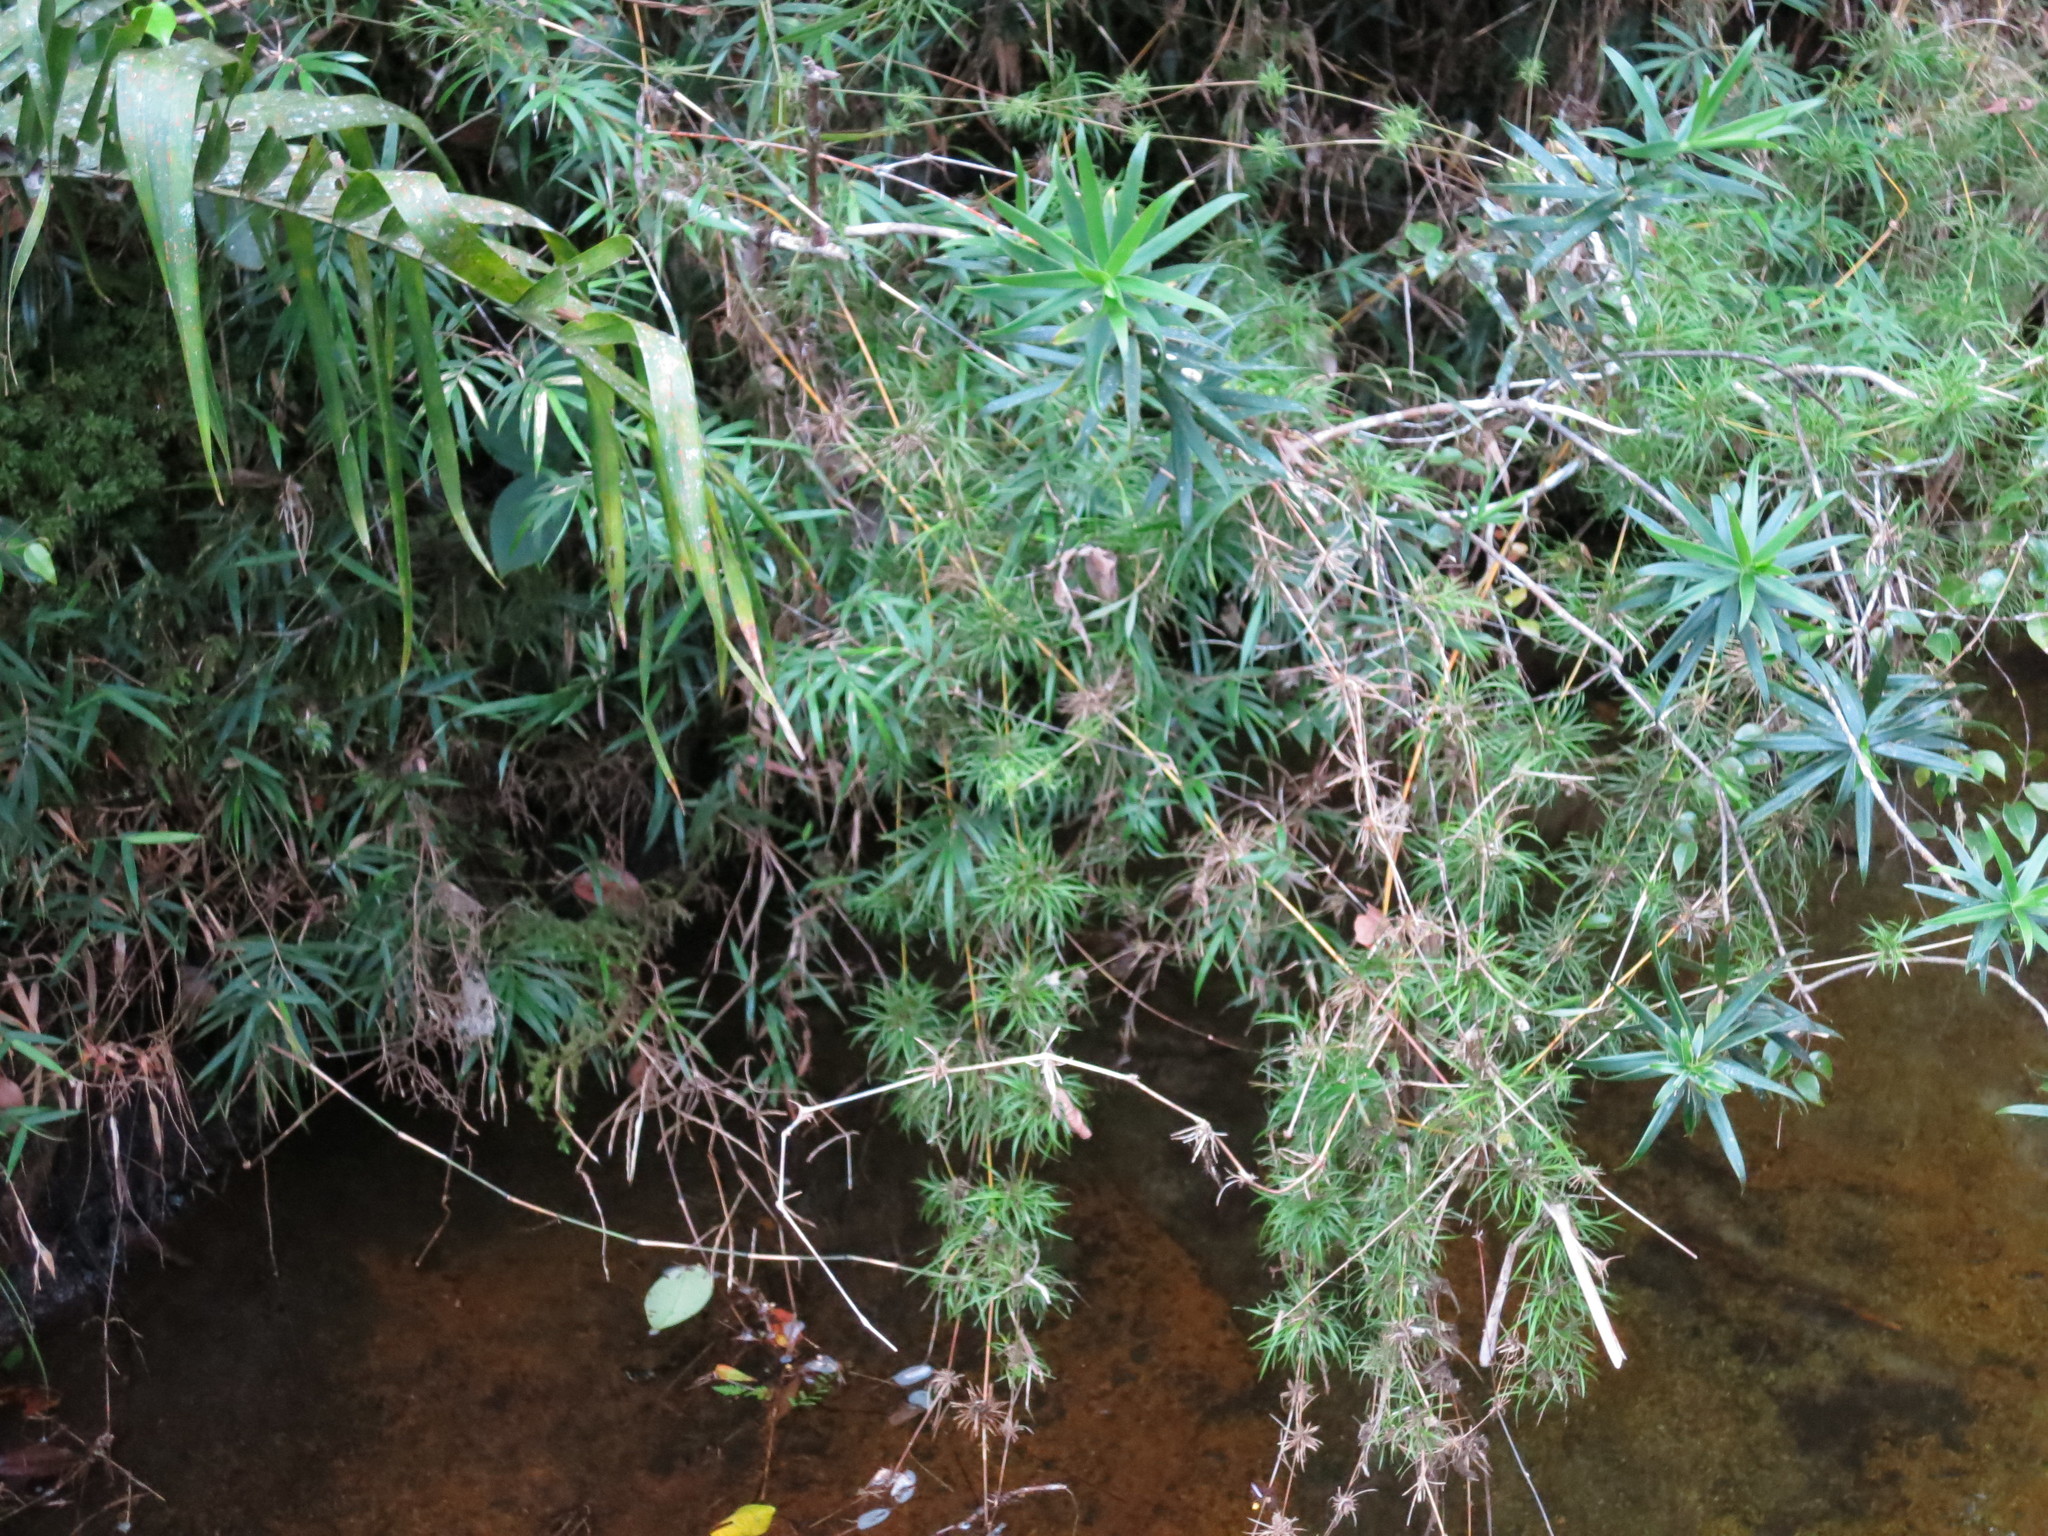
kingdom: Plantae
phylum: Tracheophyta
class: Liliopsida
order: Poales
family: Poaceae
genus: Nastus
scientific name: Nastus aristatus
